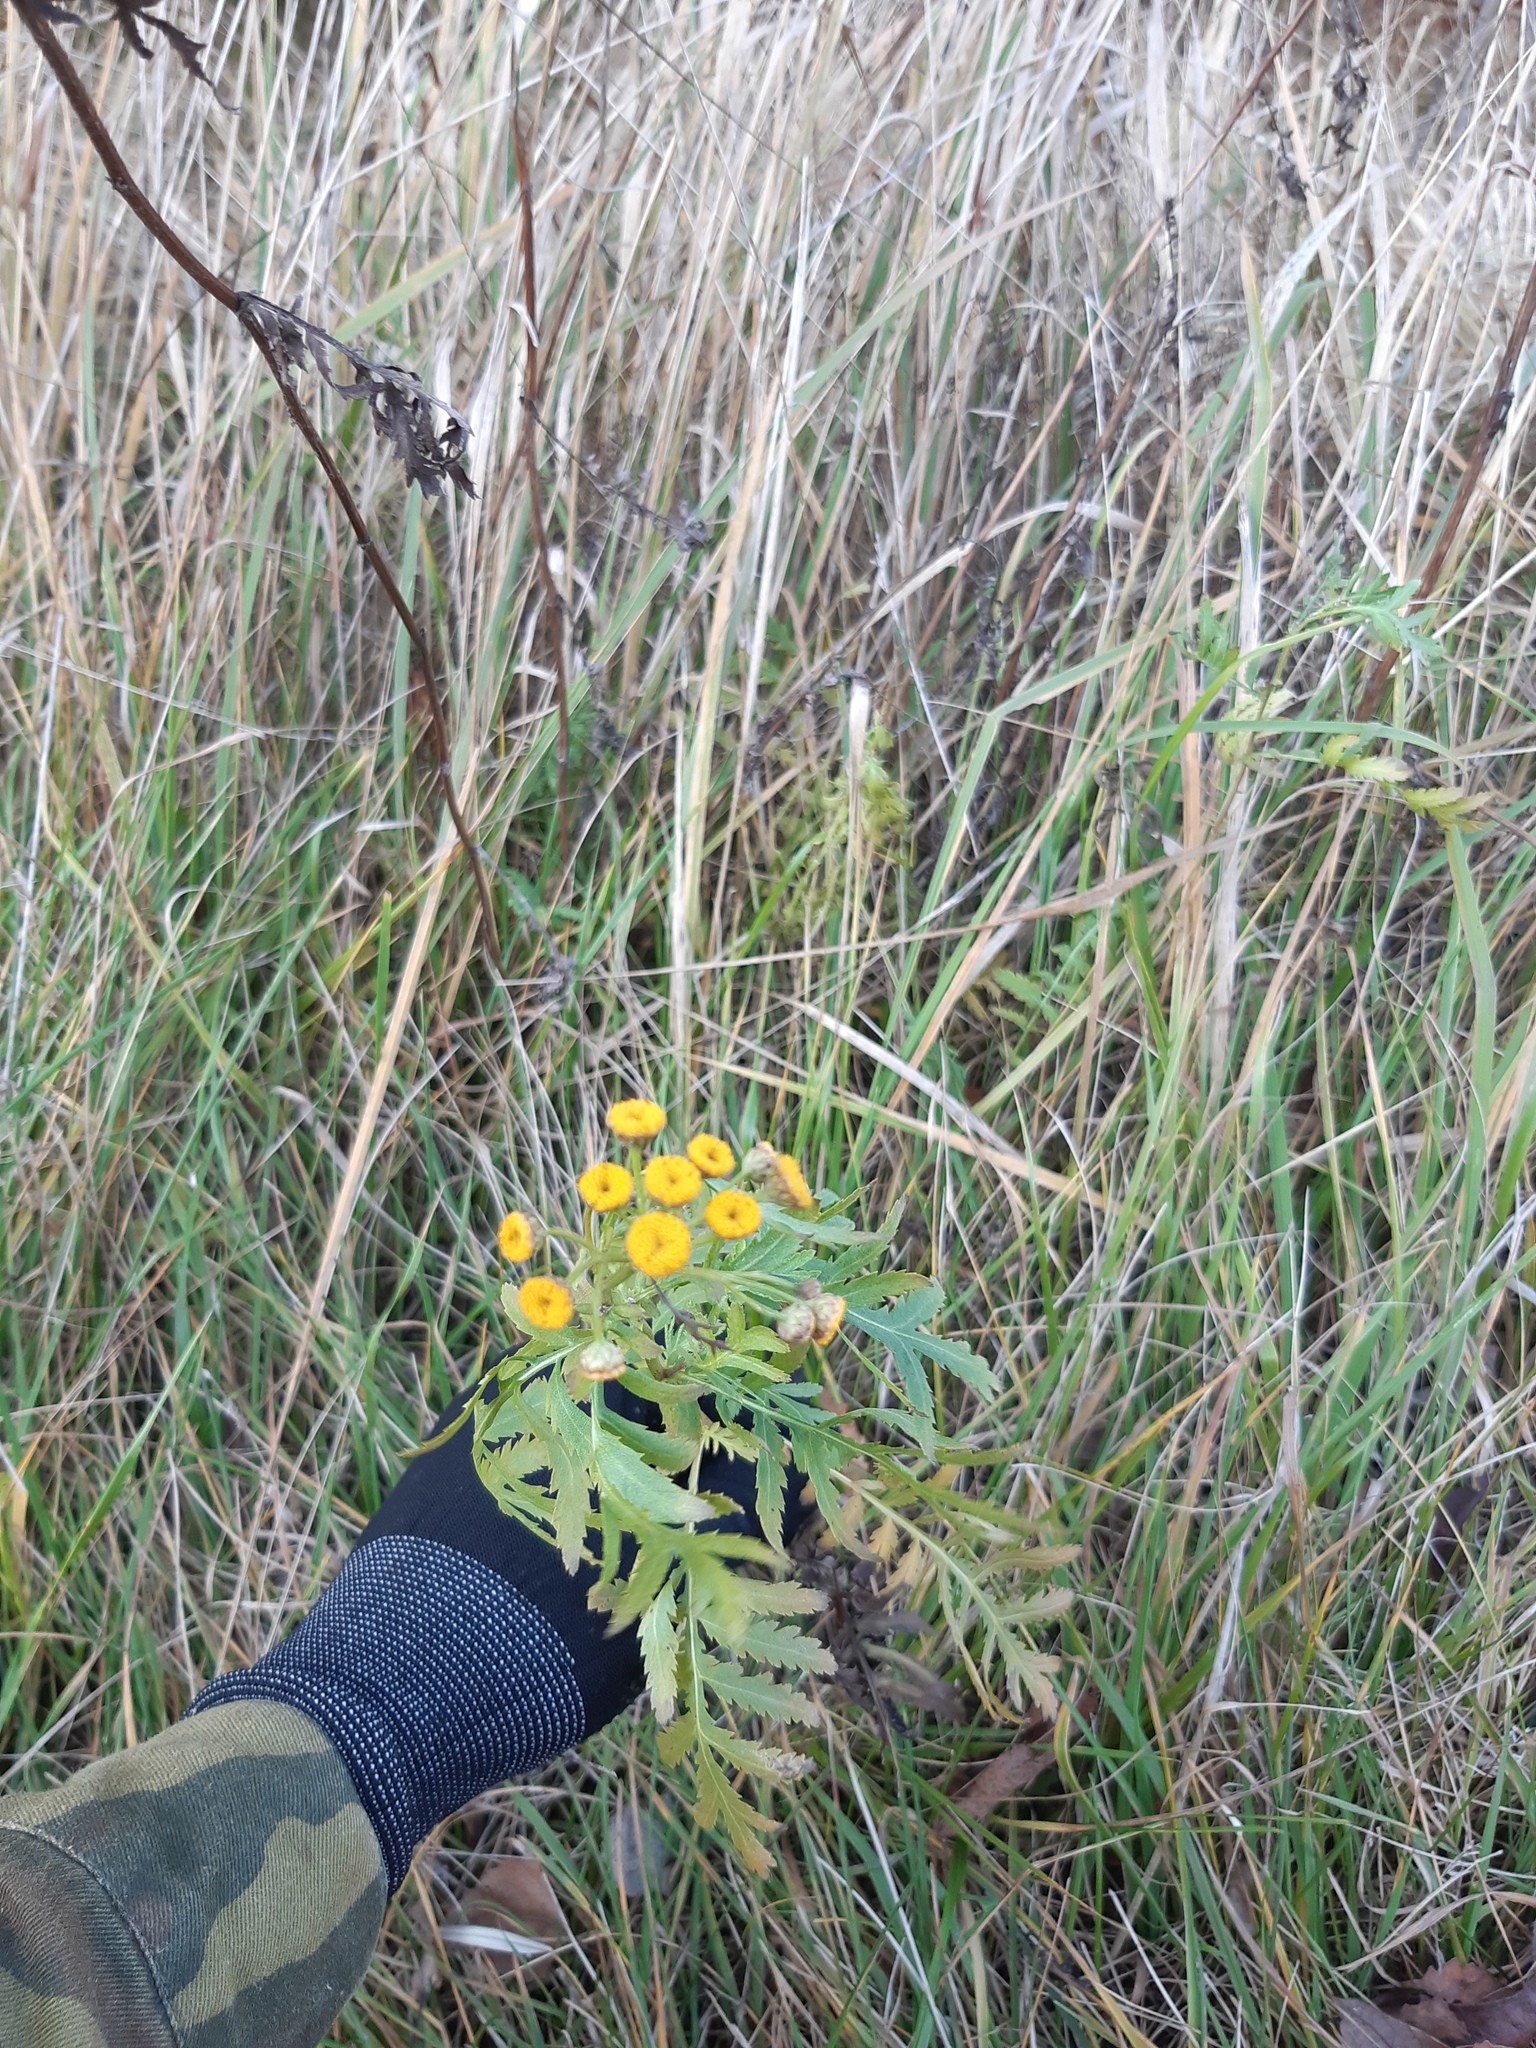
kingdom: Plantae
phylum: Tracheophyta
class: Magnoliopsida
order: Asterales
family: Asteraceae
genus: Tanacetum
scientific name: Tanacetum vulgare
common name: Common tansy
